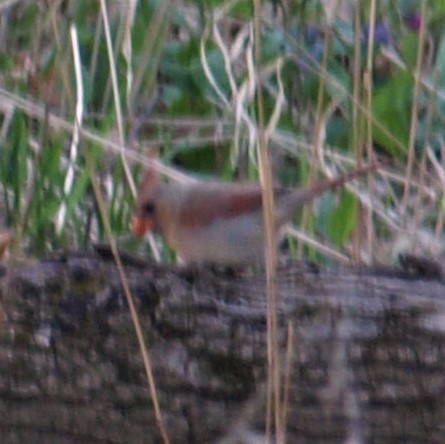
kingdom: Animalia
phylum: Chordata
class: Aves
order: Passeriformes
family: Cardinalidae
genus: Cardinalis
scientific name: Cardinalis cardinalis
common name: Northern cardinal
